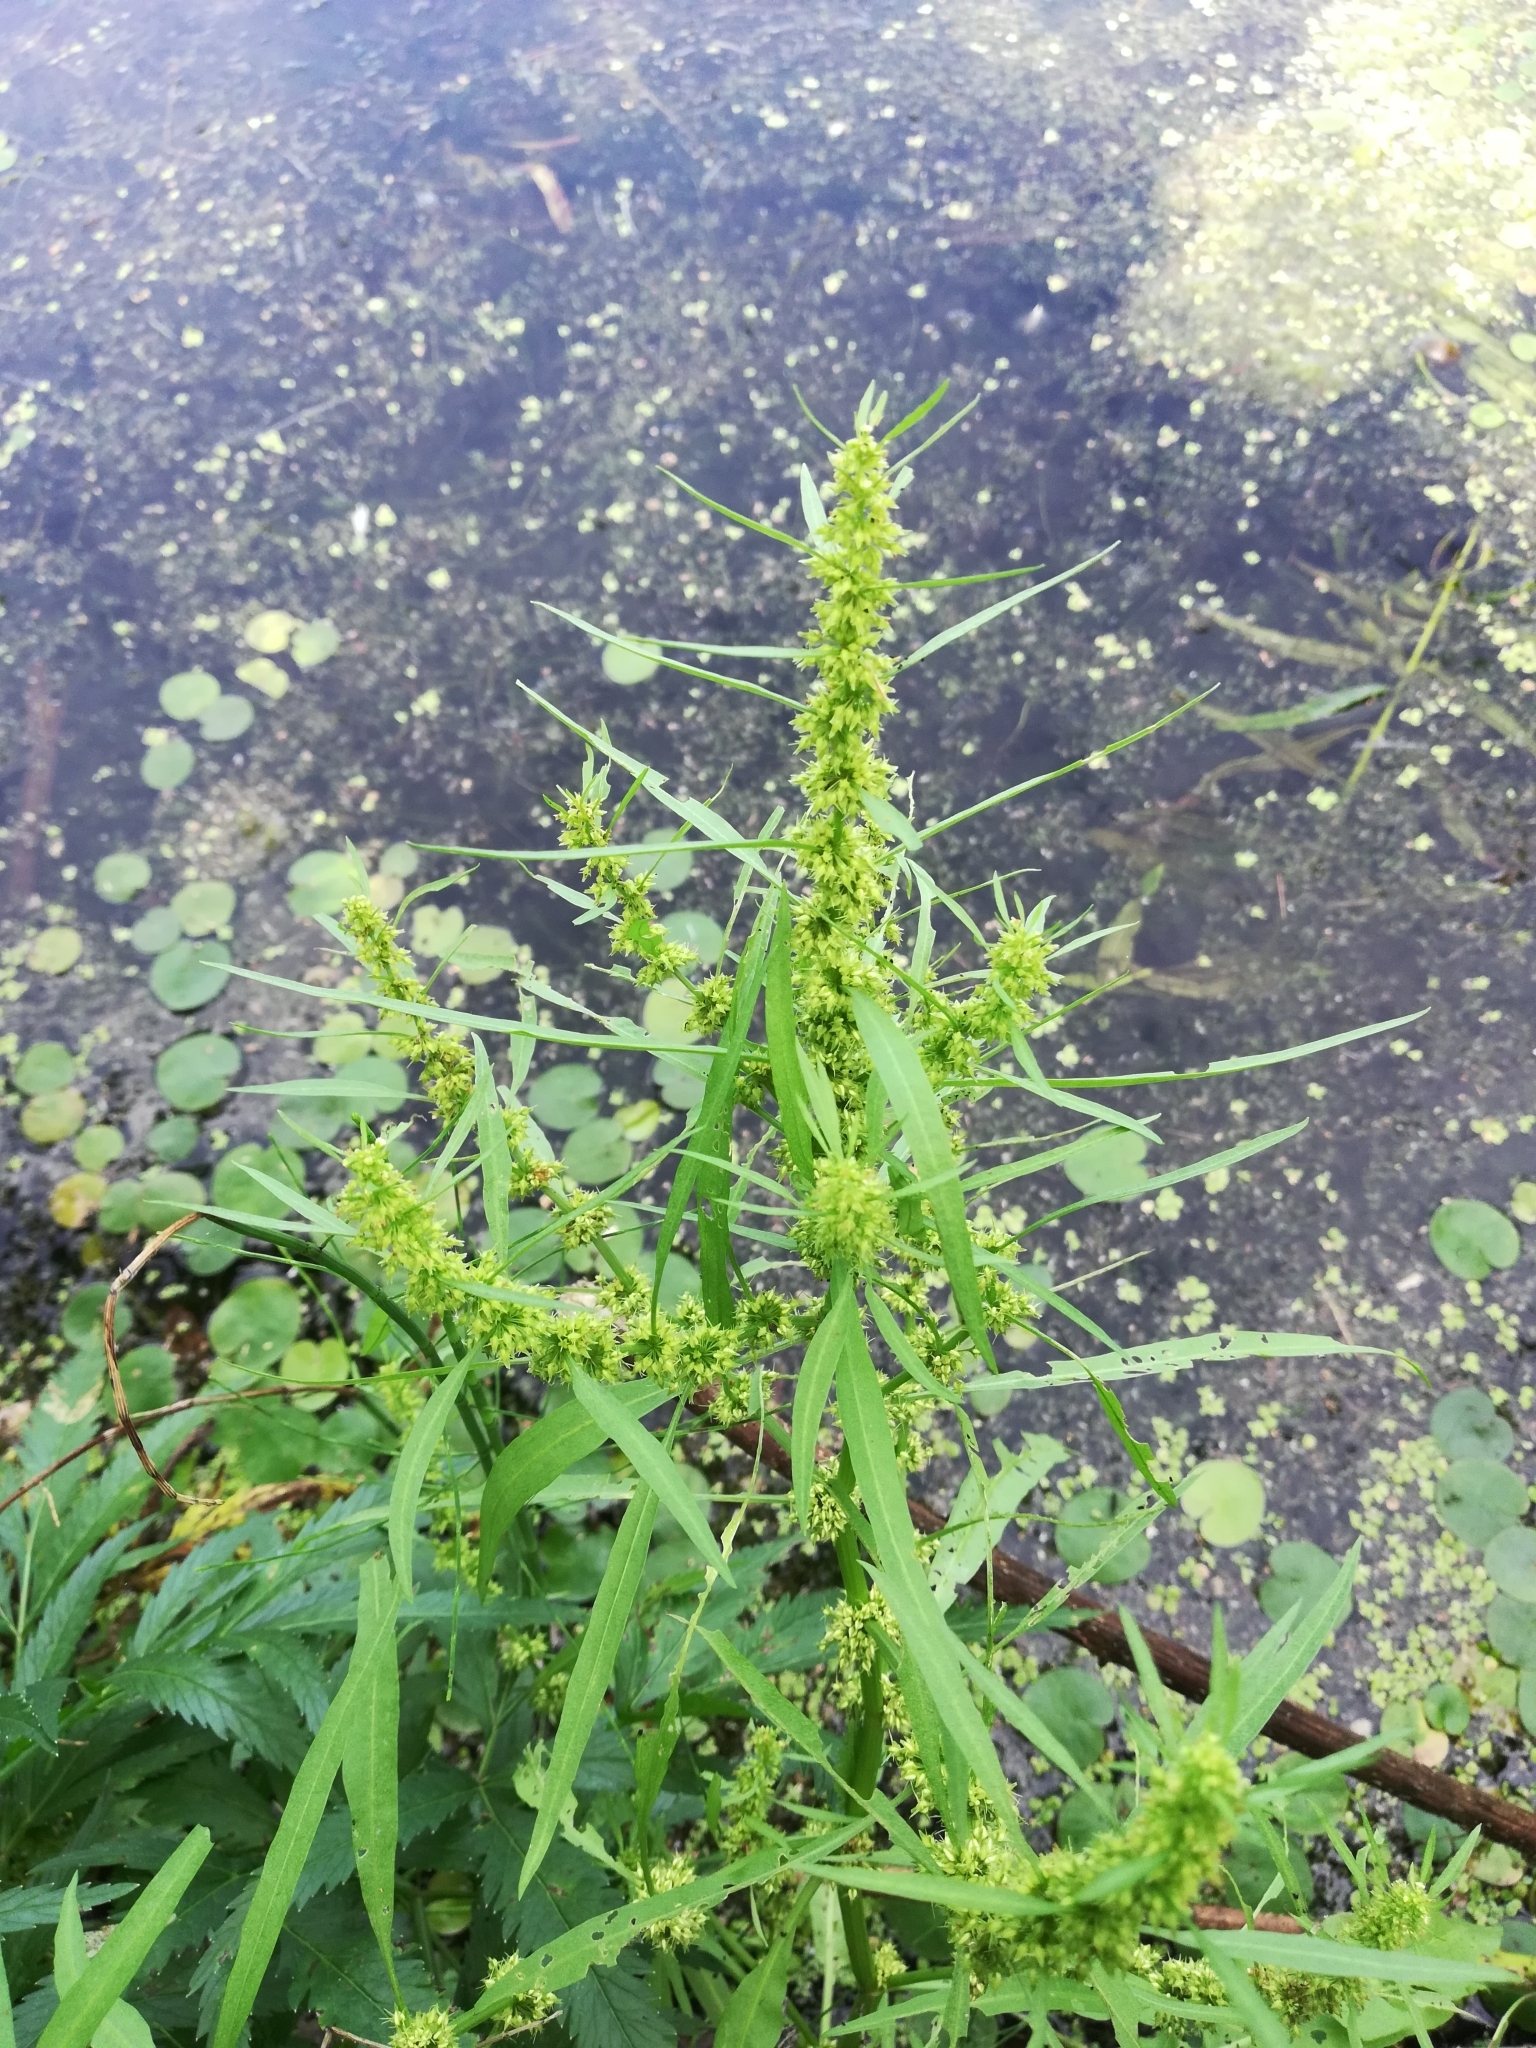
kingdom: Plantae
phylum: Tracheophyta
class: Magnoliopsida
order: Caryophyllales
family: Polygonaceae
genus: Rumex
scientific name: Rumex maritimus
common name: Golden dock
